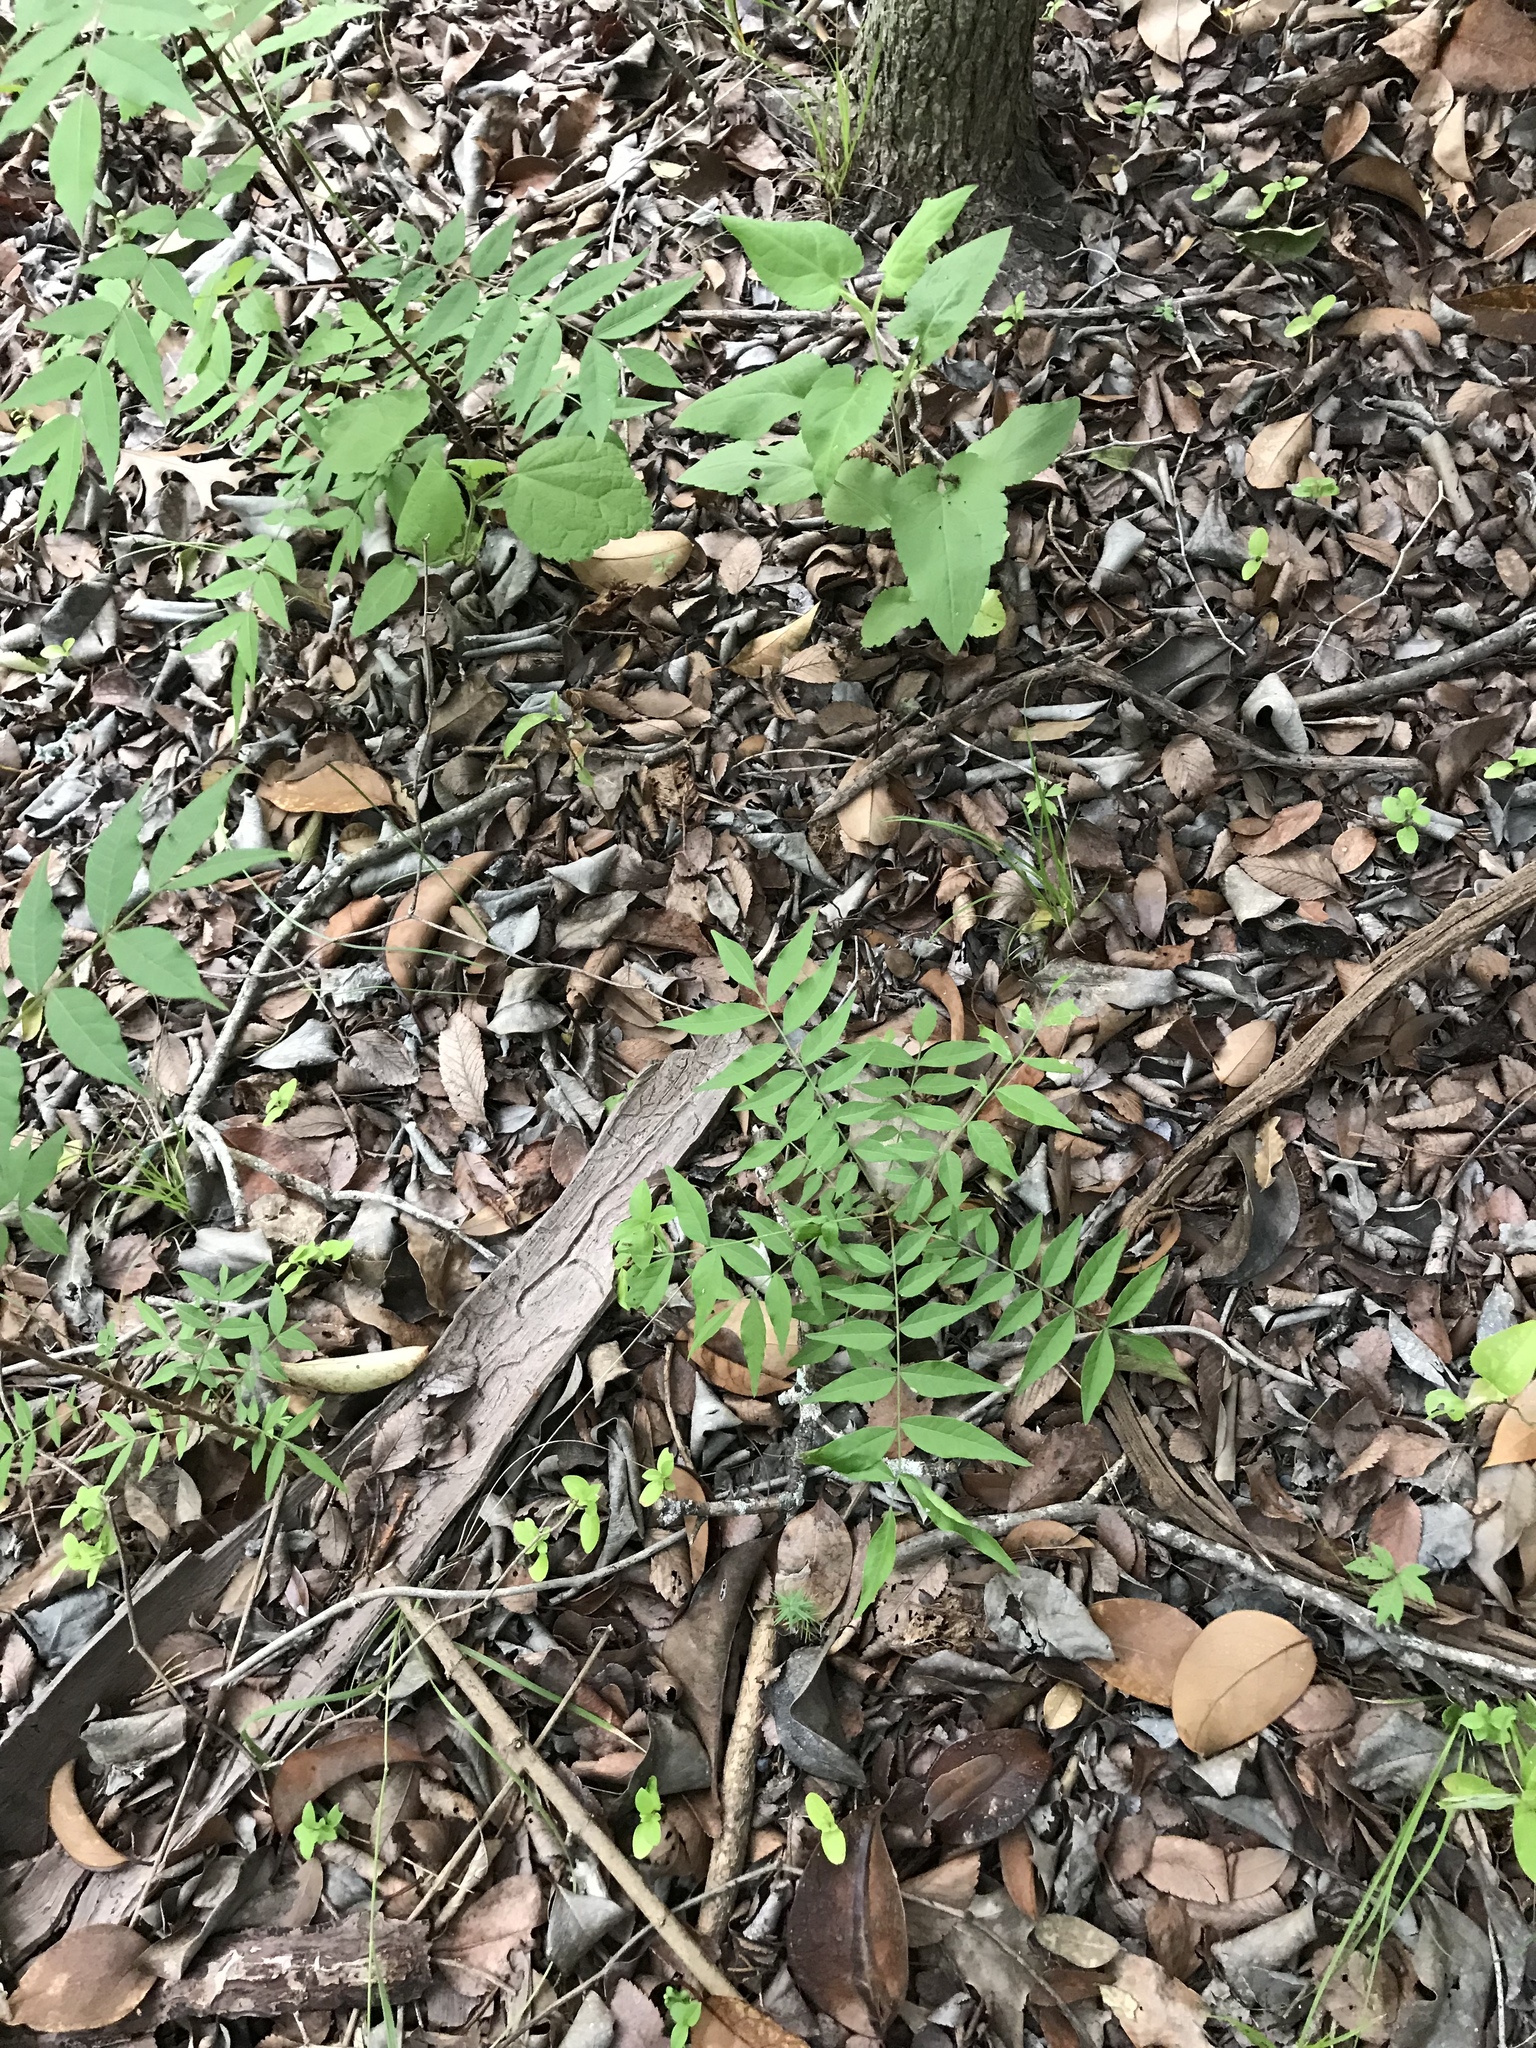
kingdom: Plantae
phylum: Tracheophyta
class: Magnoliopsida
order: Sapindales
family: Anacardiaceae
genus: Pistacia
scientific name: Pistacia chinensis
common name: Chinese pistache
